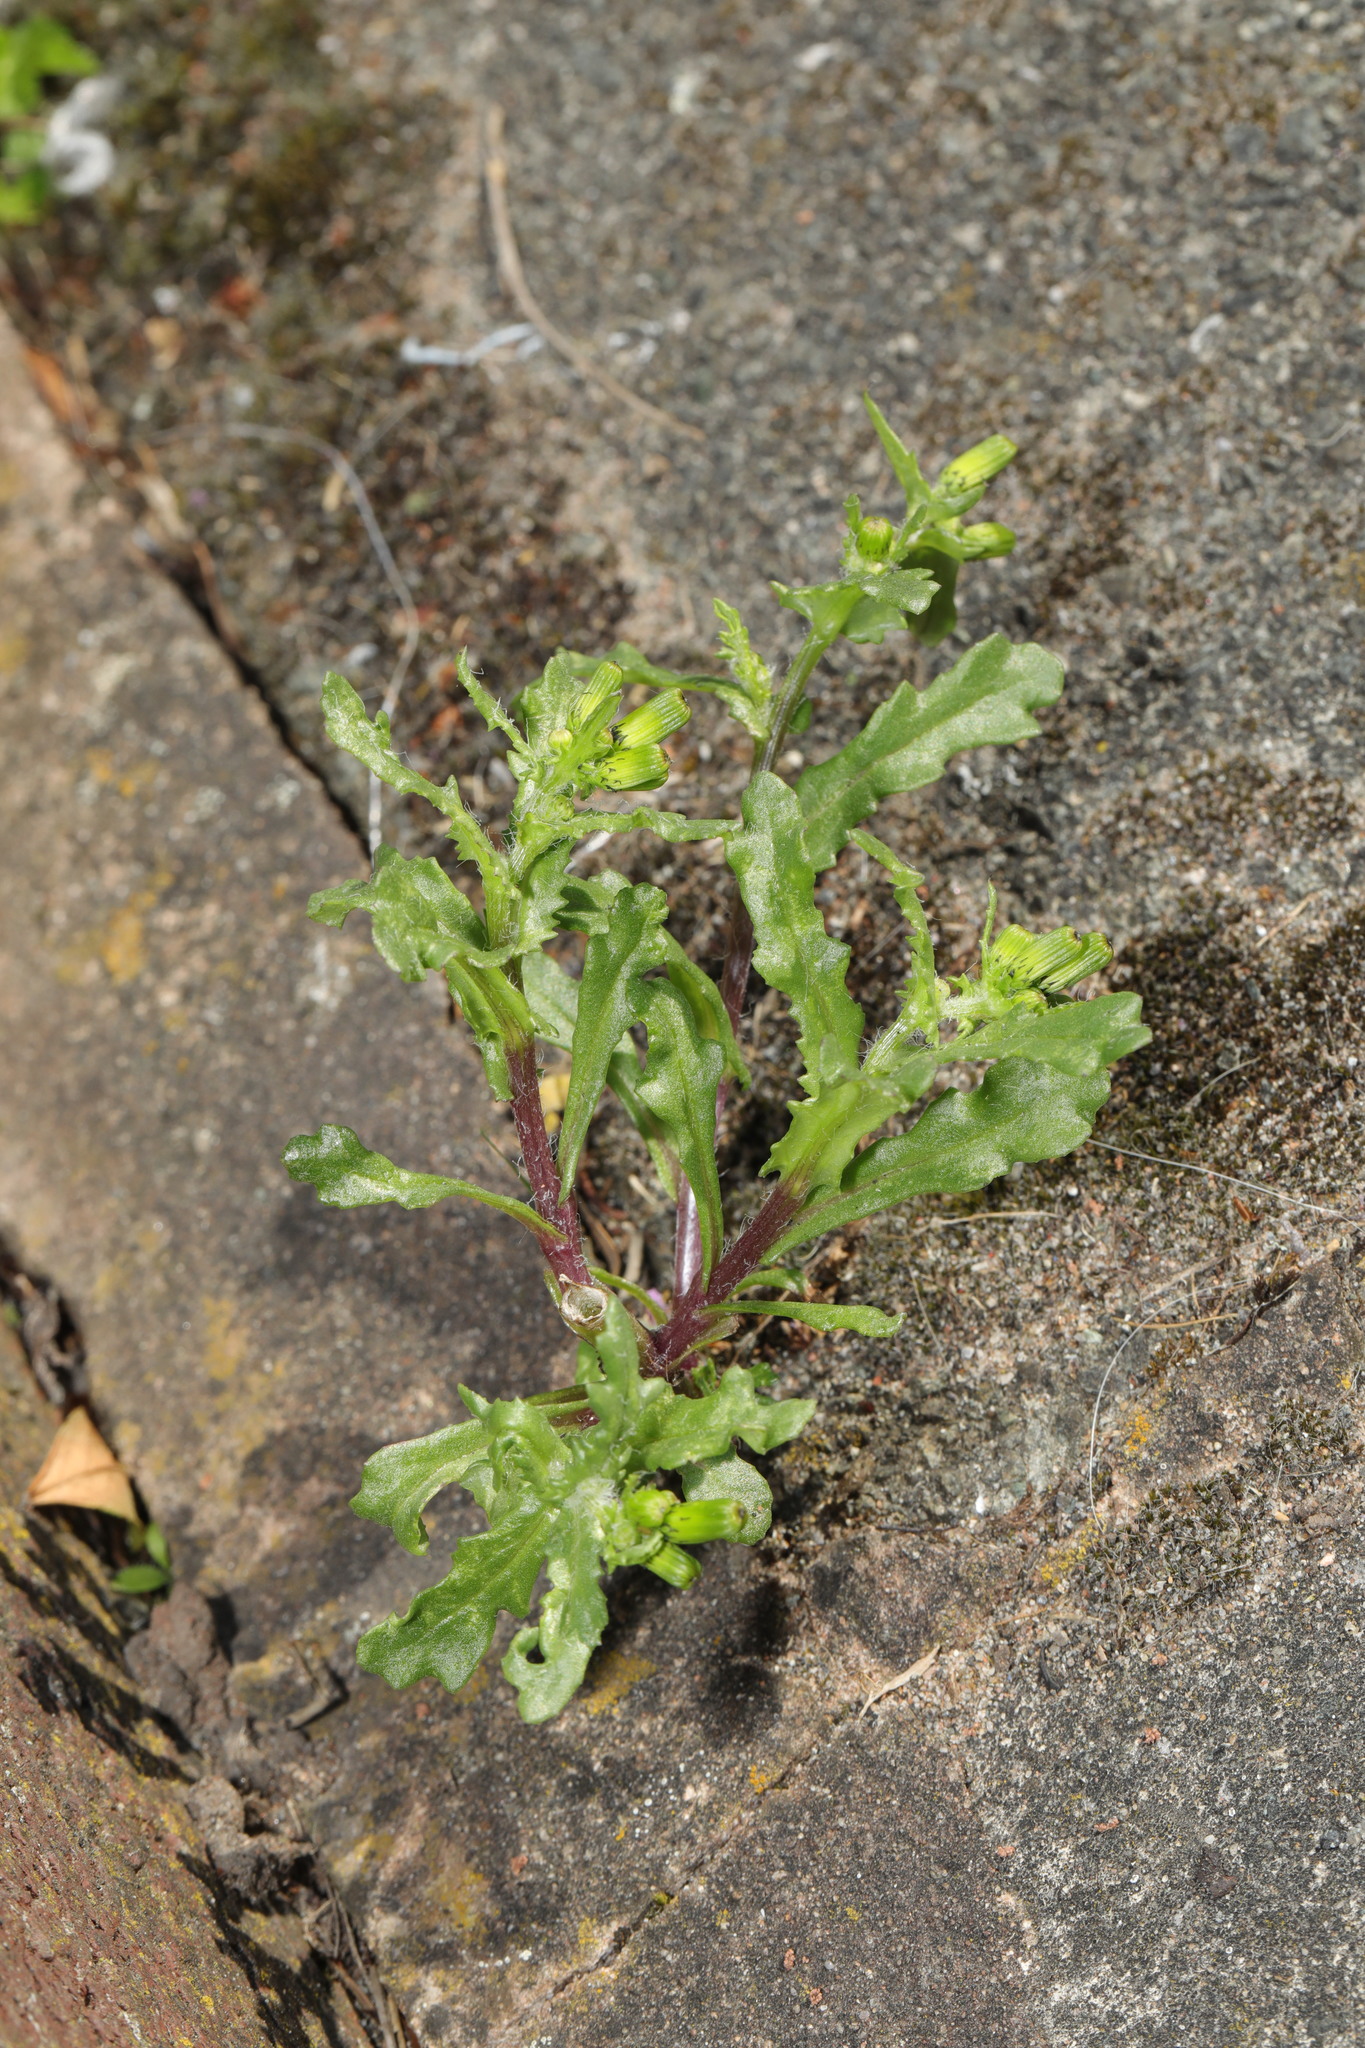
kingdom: Plantae
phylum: Tracheophyta
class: Magnoliopsida
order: Asterales
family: Asteraceae
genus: Senecio
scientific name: Senecio vulgaris
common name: Old-man-in-the-spring
